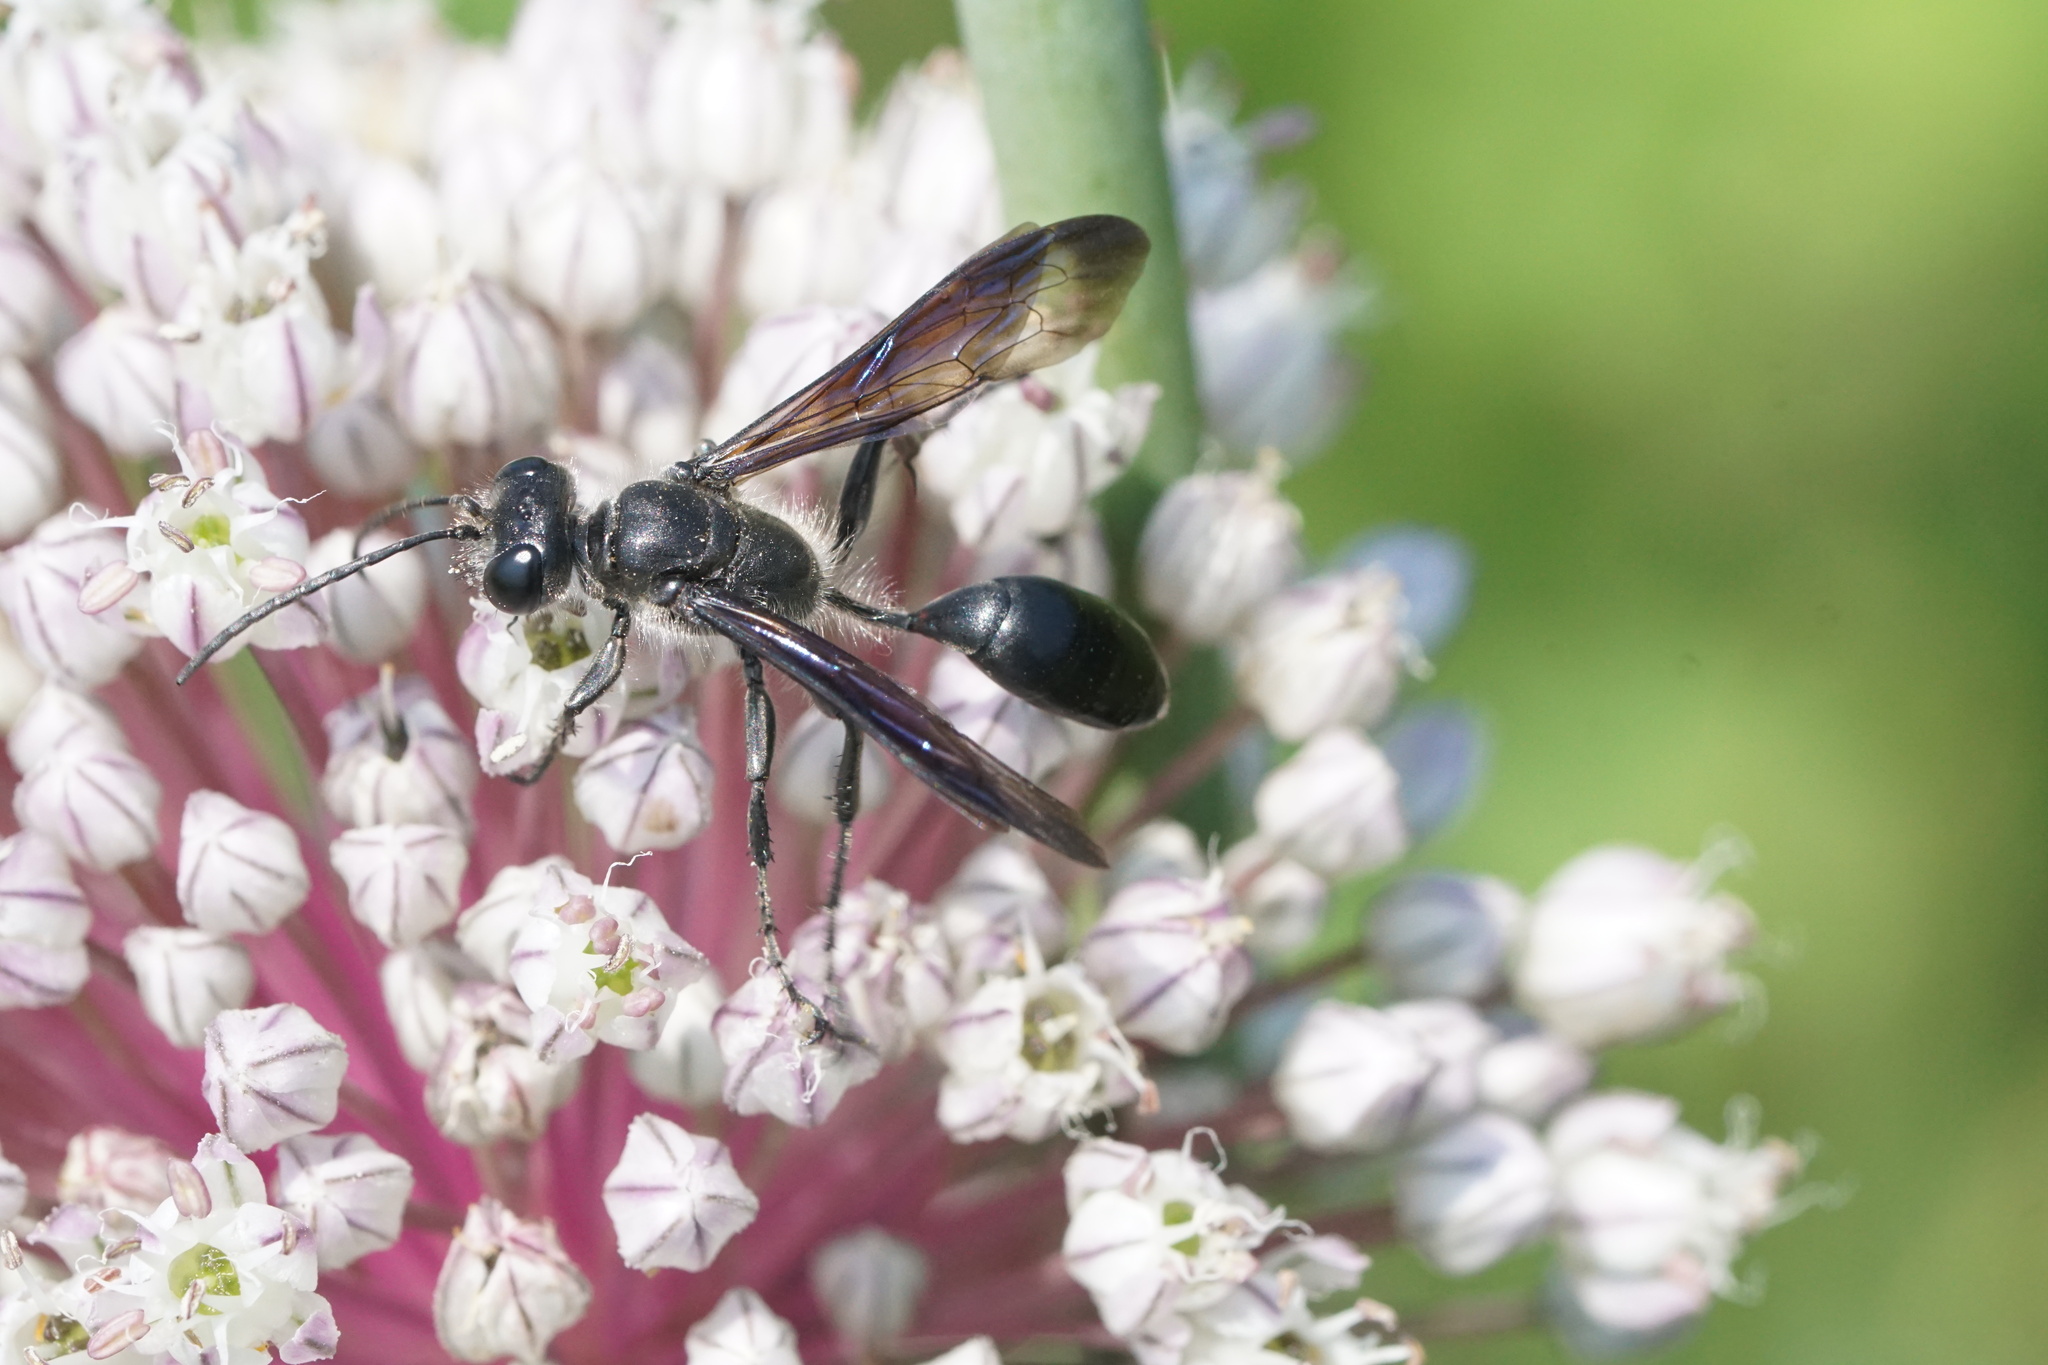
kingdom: Animalia
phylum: Arthropoda
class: Insecta
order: Hymenoptera
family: Sphecidae
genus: Isodontia
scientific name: Isodontia mexicana
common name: Mud dauber
